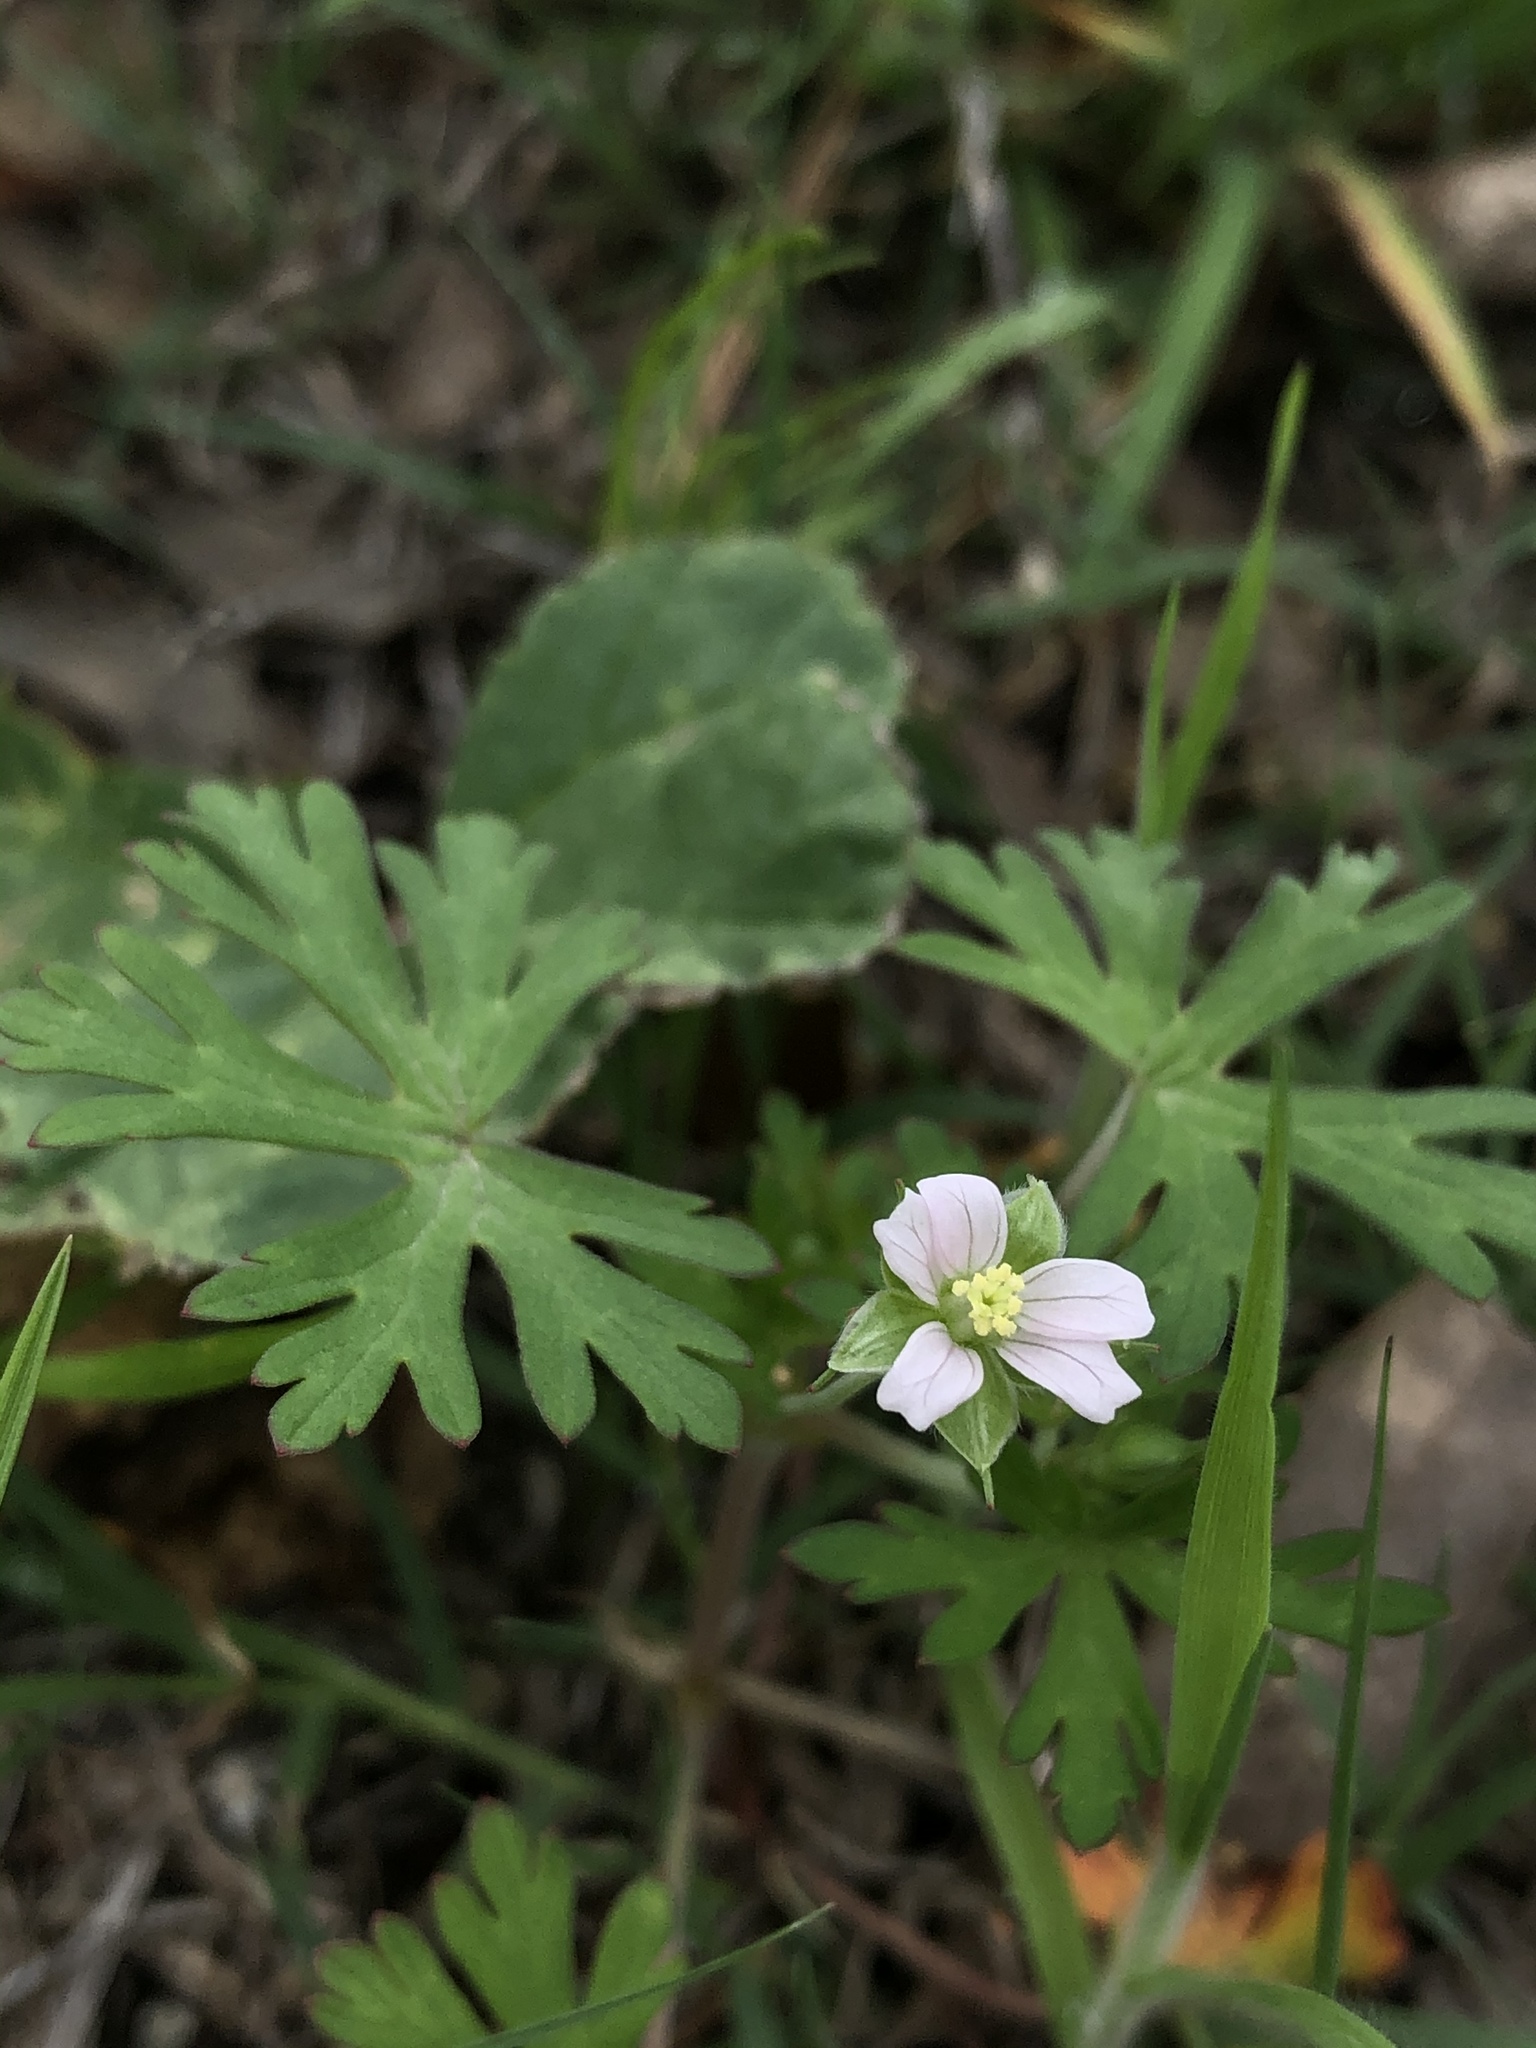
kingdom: Plantae
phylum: Tracheophyta
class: Magnoliopsida
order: Geraniales
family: Geraniaceae
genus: Geranium
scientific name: Geranium carolinianum
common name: Carolina crane's-bill
